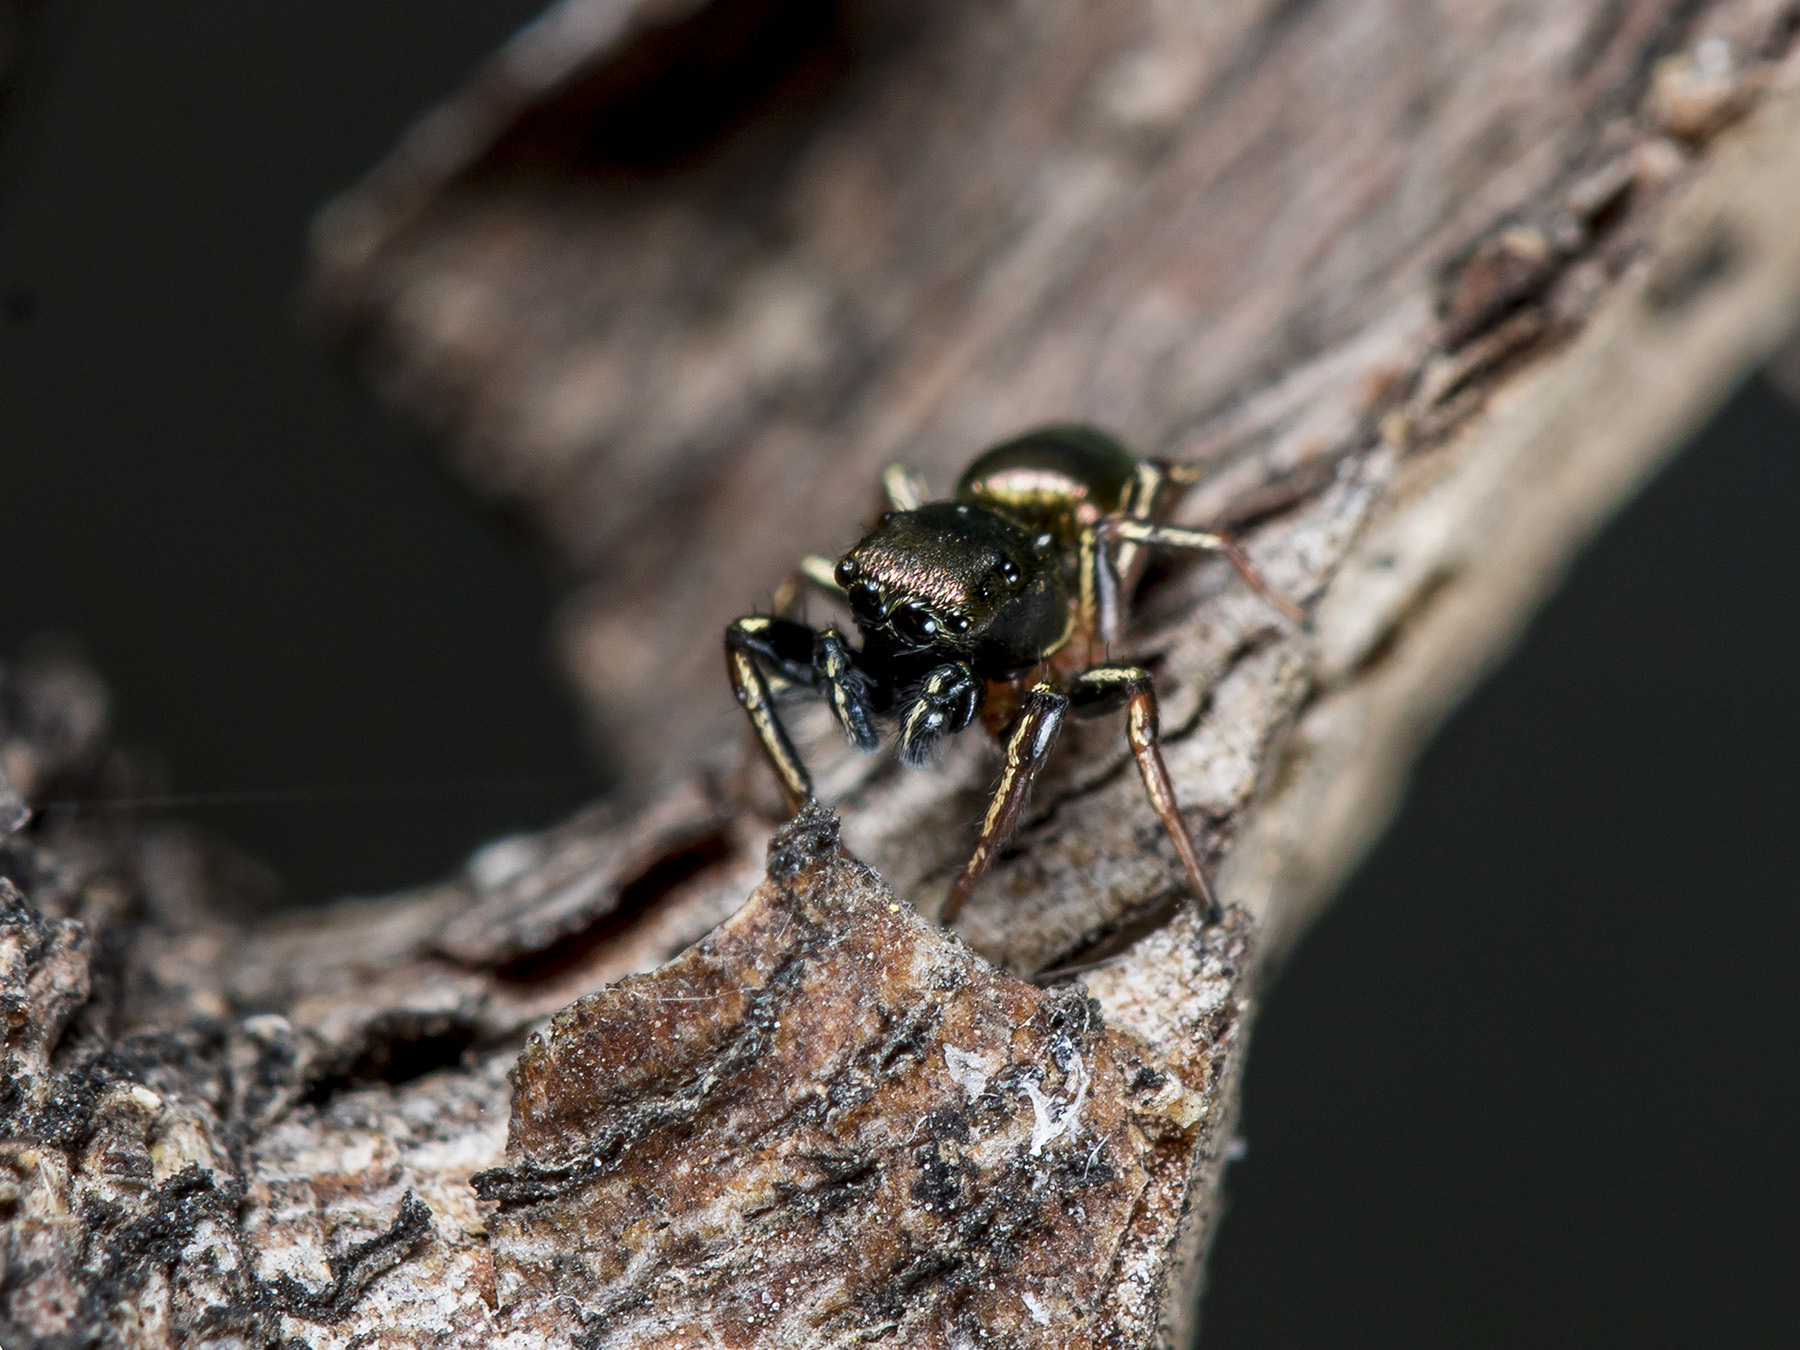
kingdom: Animalia
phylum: Arthropoda
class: Arachnida
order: Araneae
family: Salticidae
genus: Heliophanus
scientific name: Heliophanus auratus
